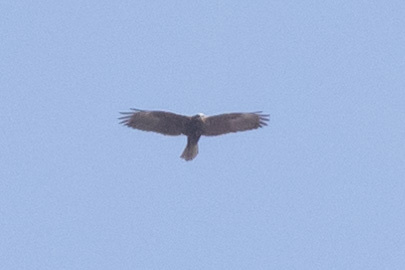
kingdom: Animalia
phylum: Chordata
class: Aves
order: Accipitriformes
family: Accipitridae
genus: Circus
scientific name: Circus aeruginosus
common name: Western marsh harrier
